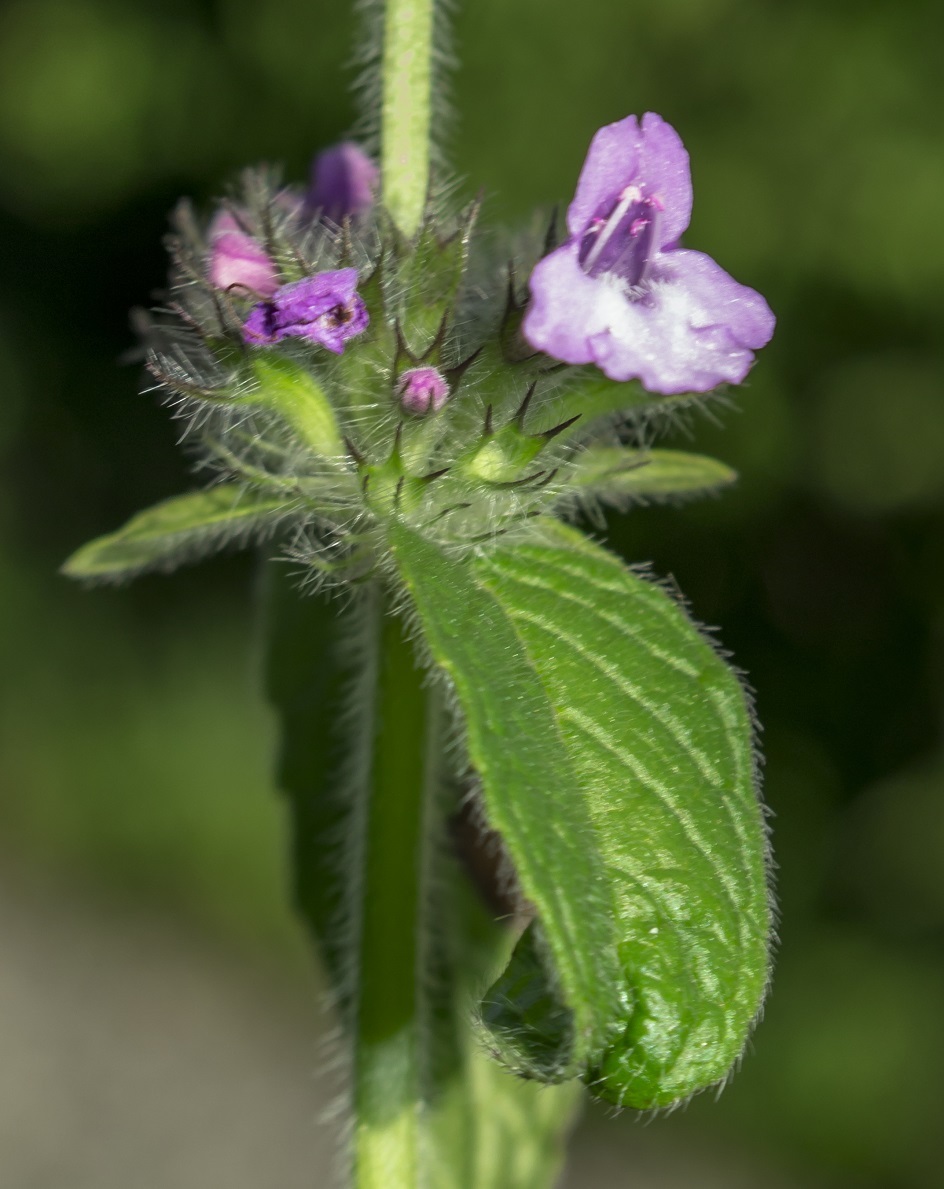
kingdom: Plantae
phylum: Tracheophyta
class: Magnoliopsida
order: Lamiales
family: Lamiaceae
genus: Clinopodium
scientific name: Clinopodium vulgare
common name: Wild basil
